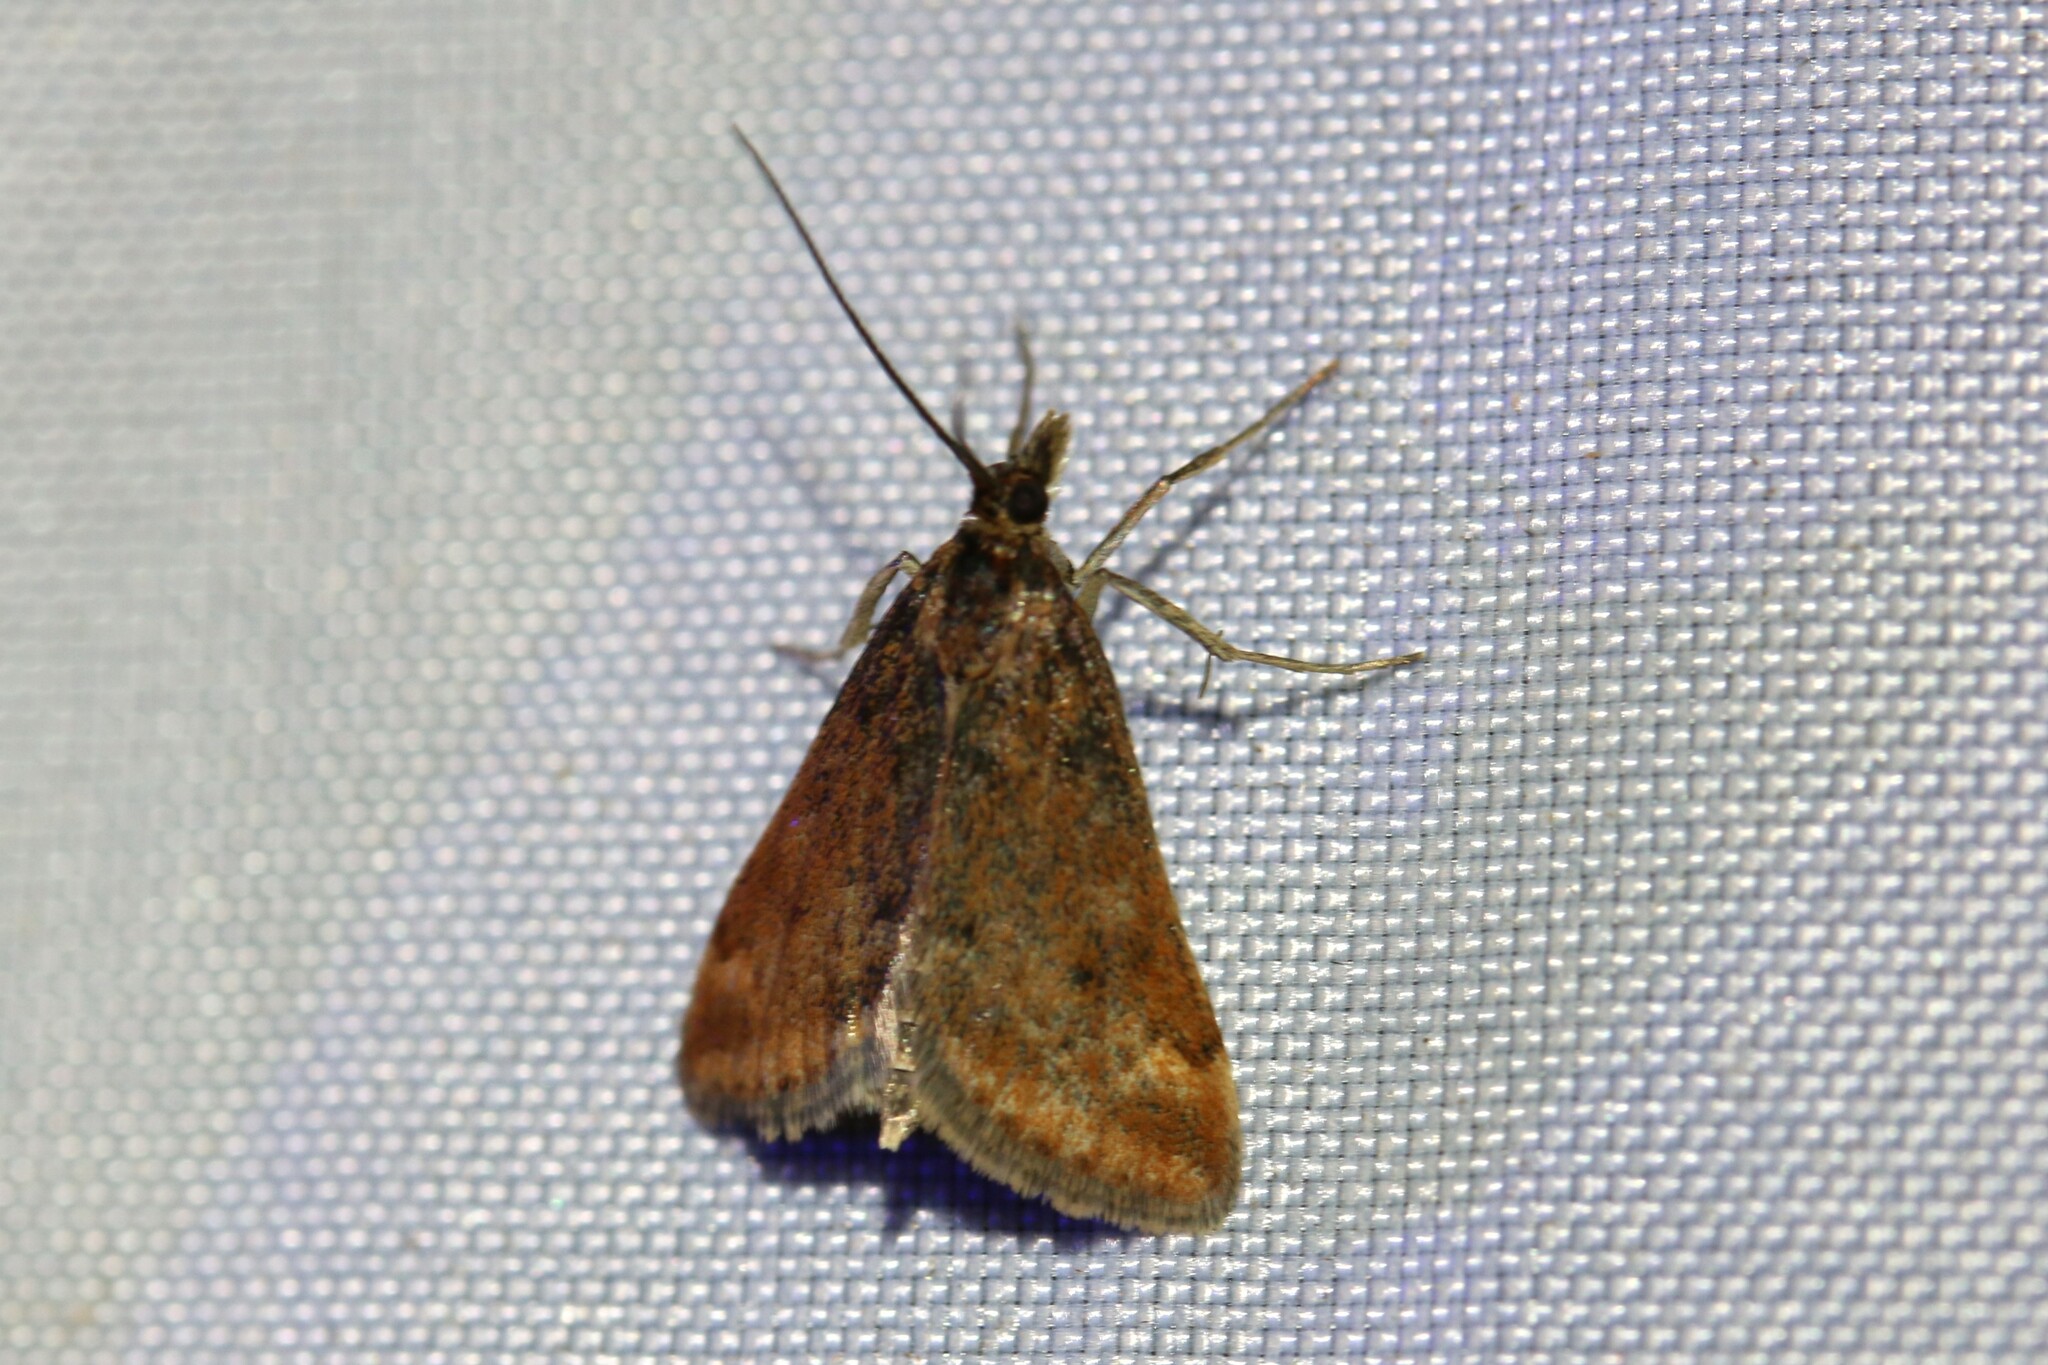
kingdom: Animalia
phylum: Arthropoda
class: Insecta
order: Lepidoptera
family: Crambidae
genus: Pyrausta
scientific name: Pyrausta despicata
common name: Straw-barred pearl
